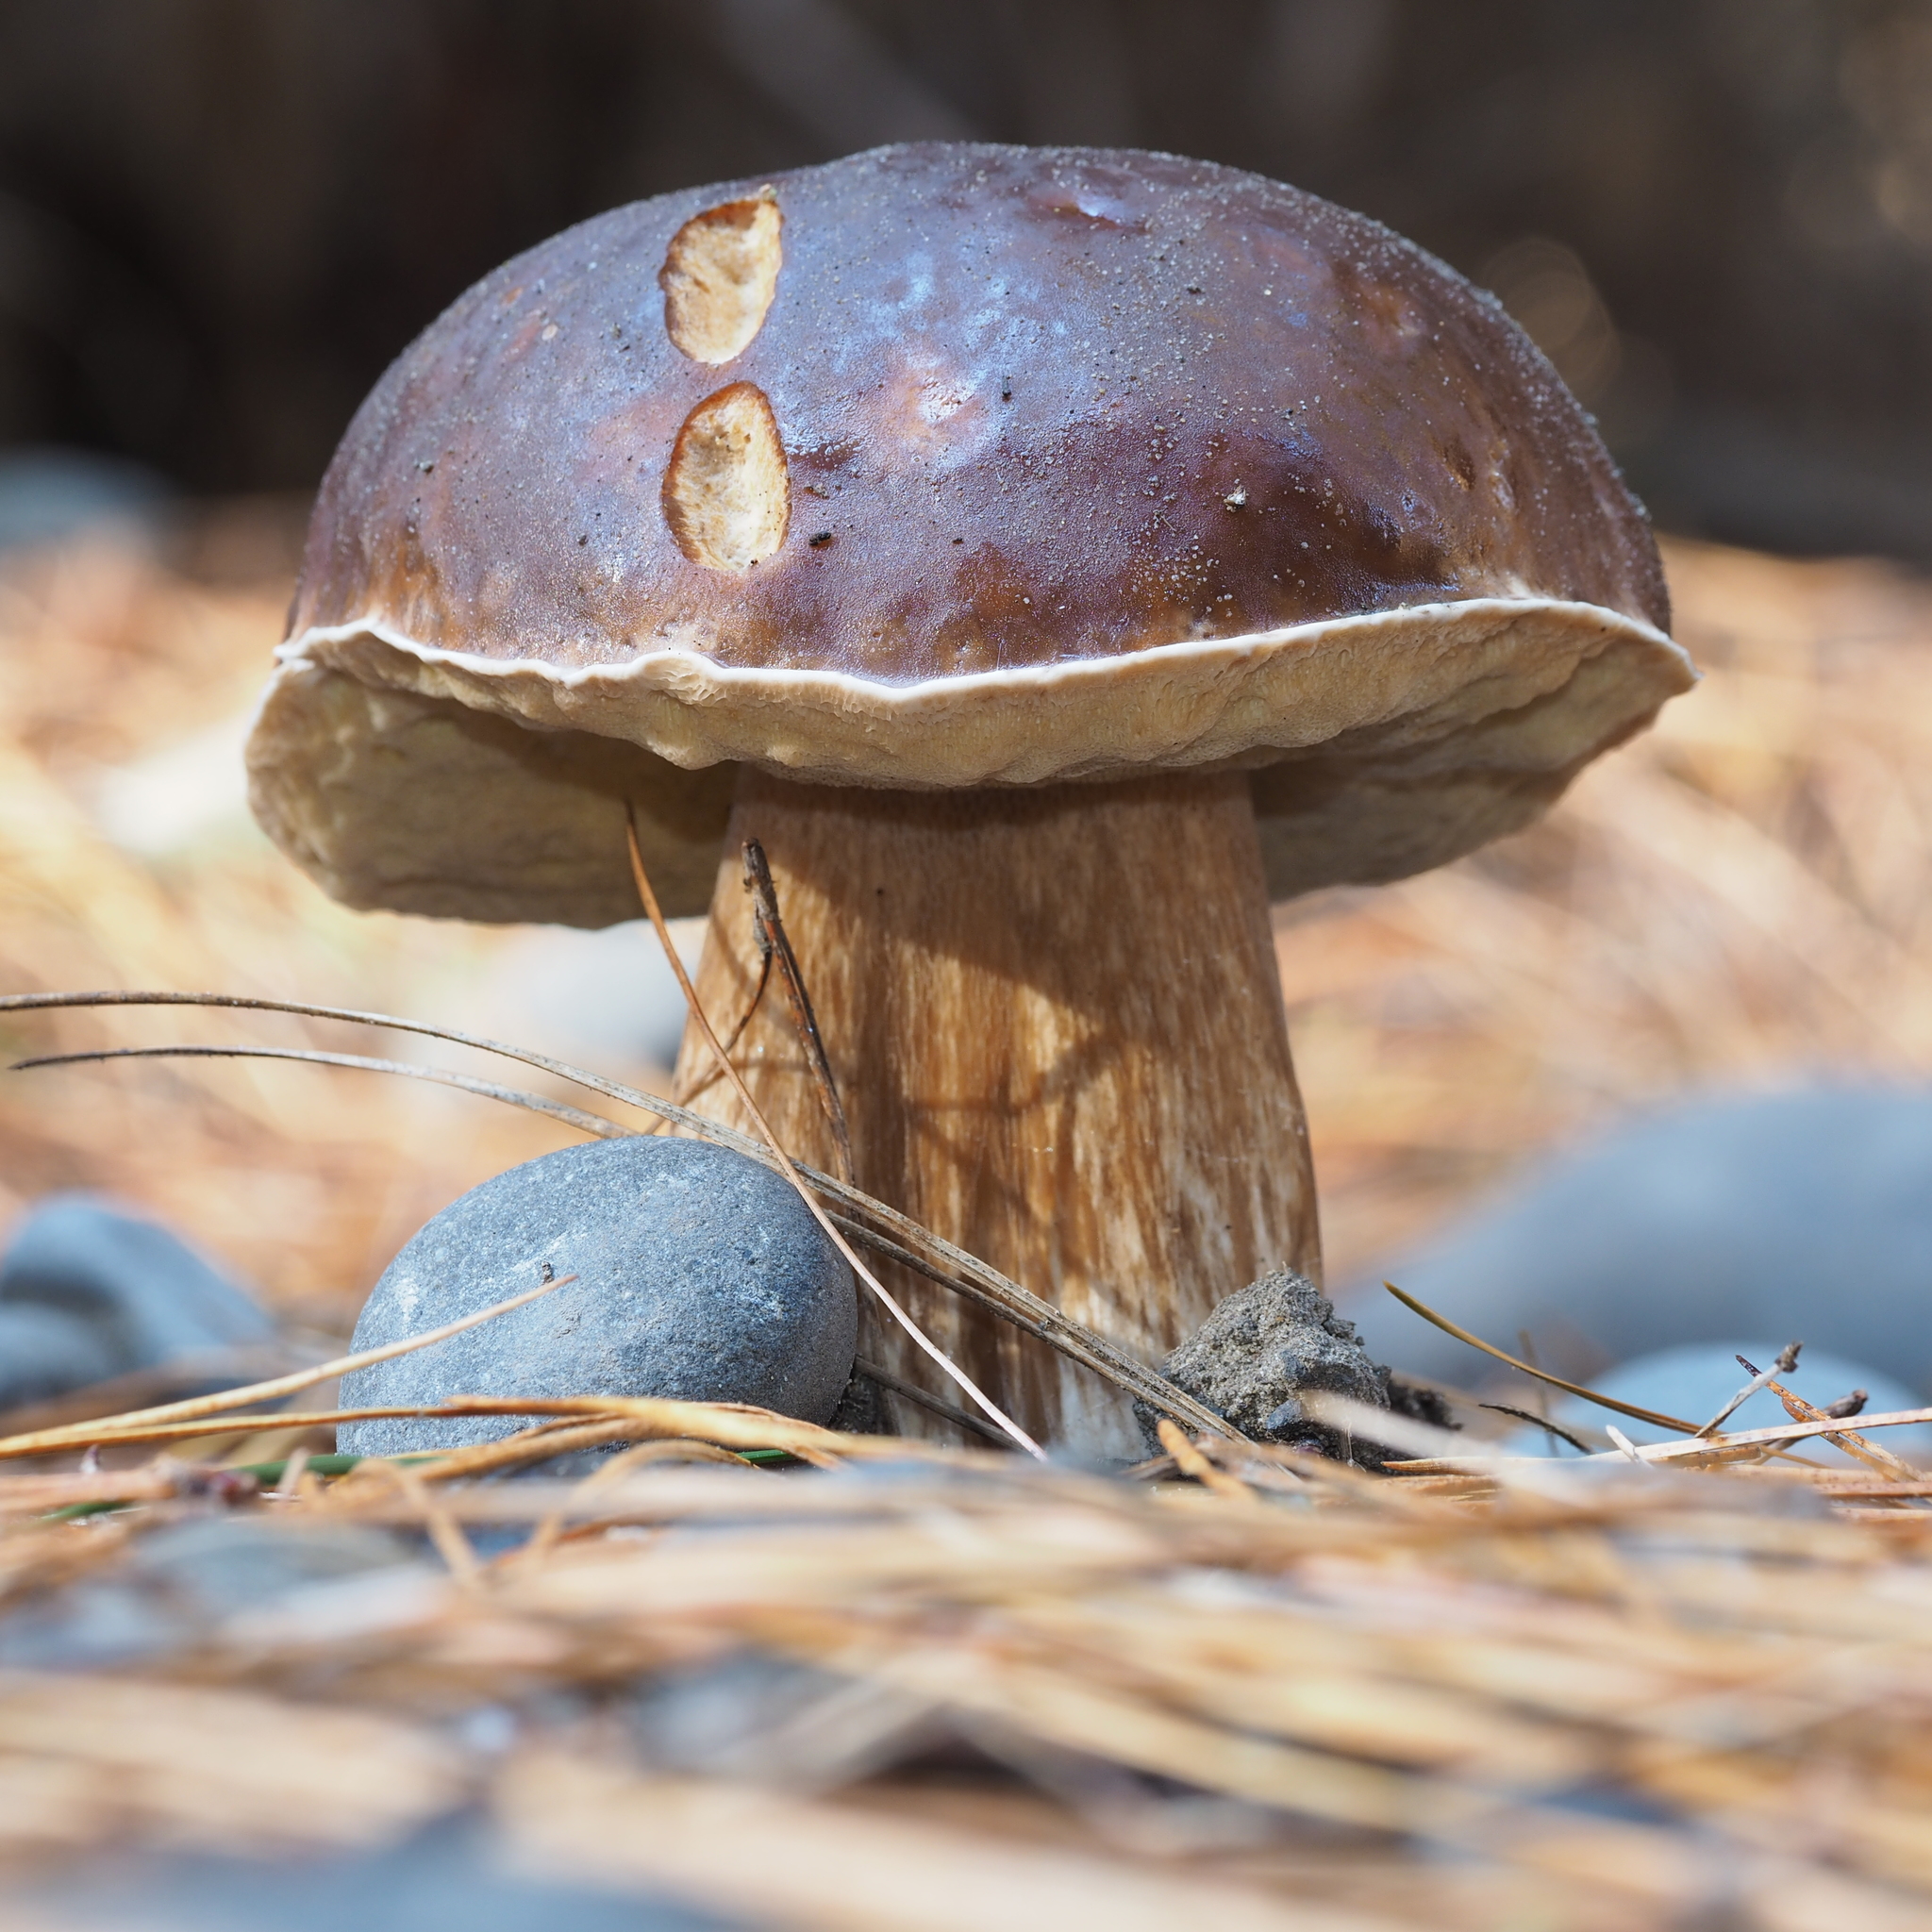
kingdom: Fungi
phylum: Basidiomycota
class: Agaricomycetes
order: Boletales
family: Boletaceae
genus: Boletus
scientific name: Boletus edulis
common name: Cep
